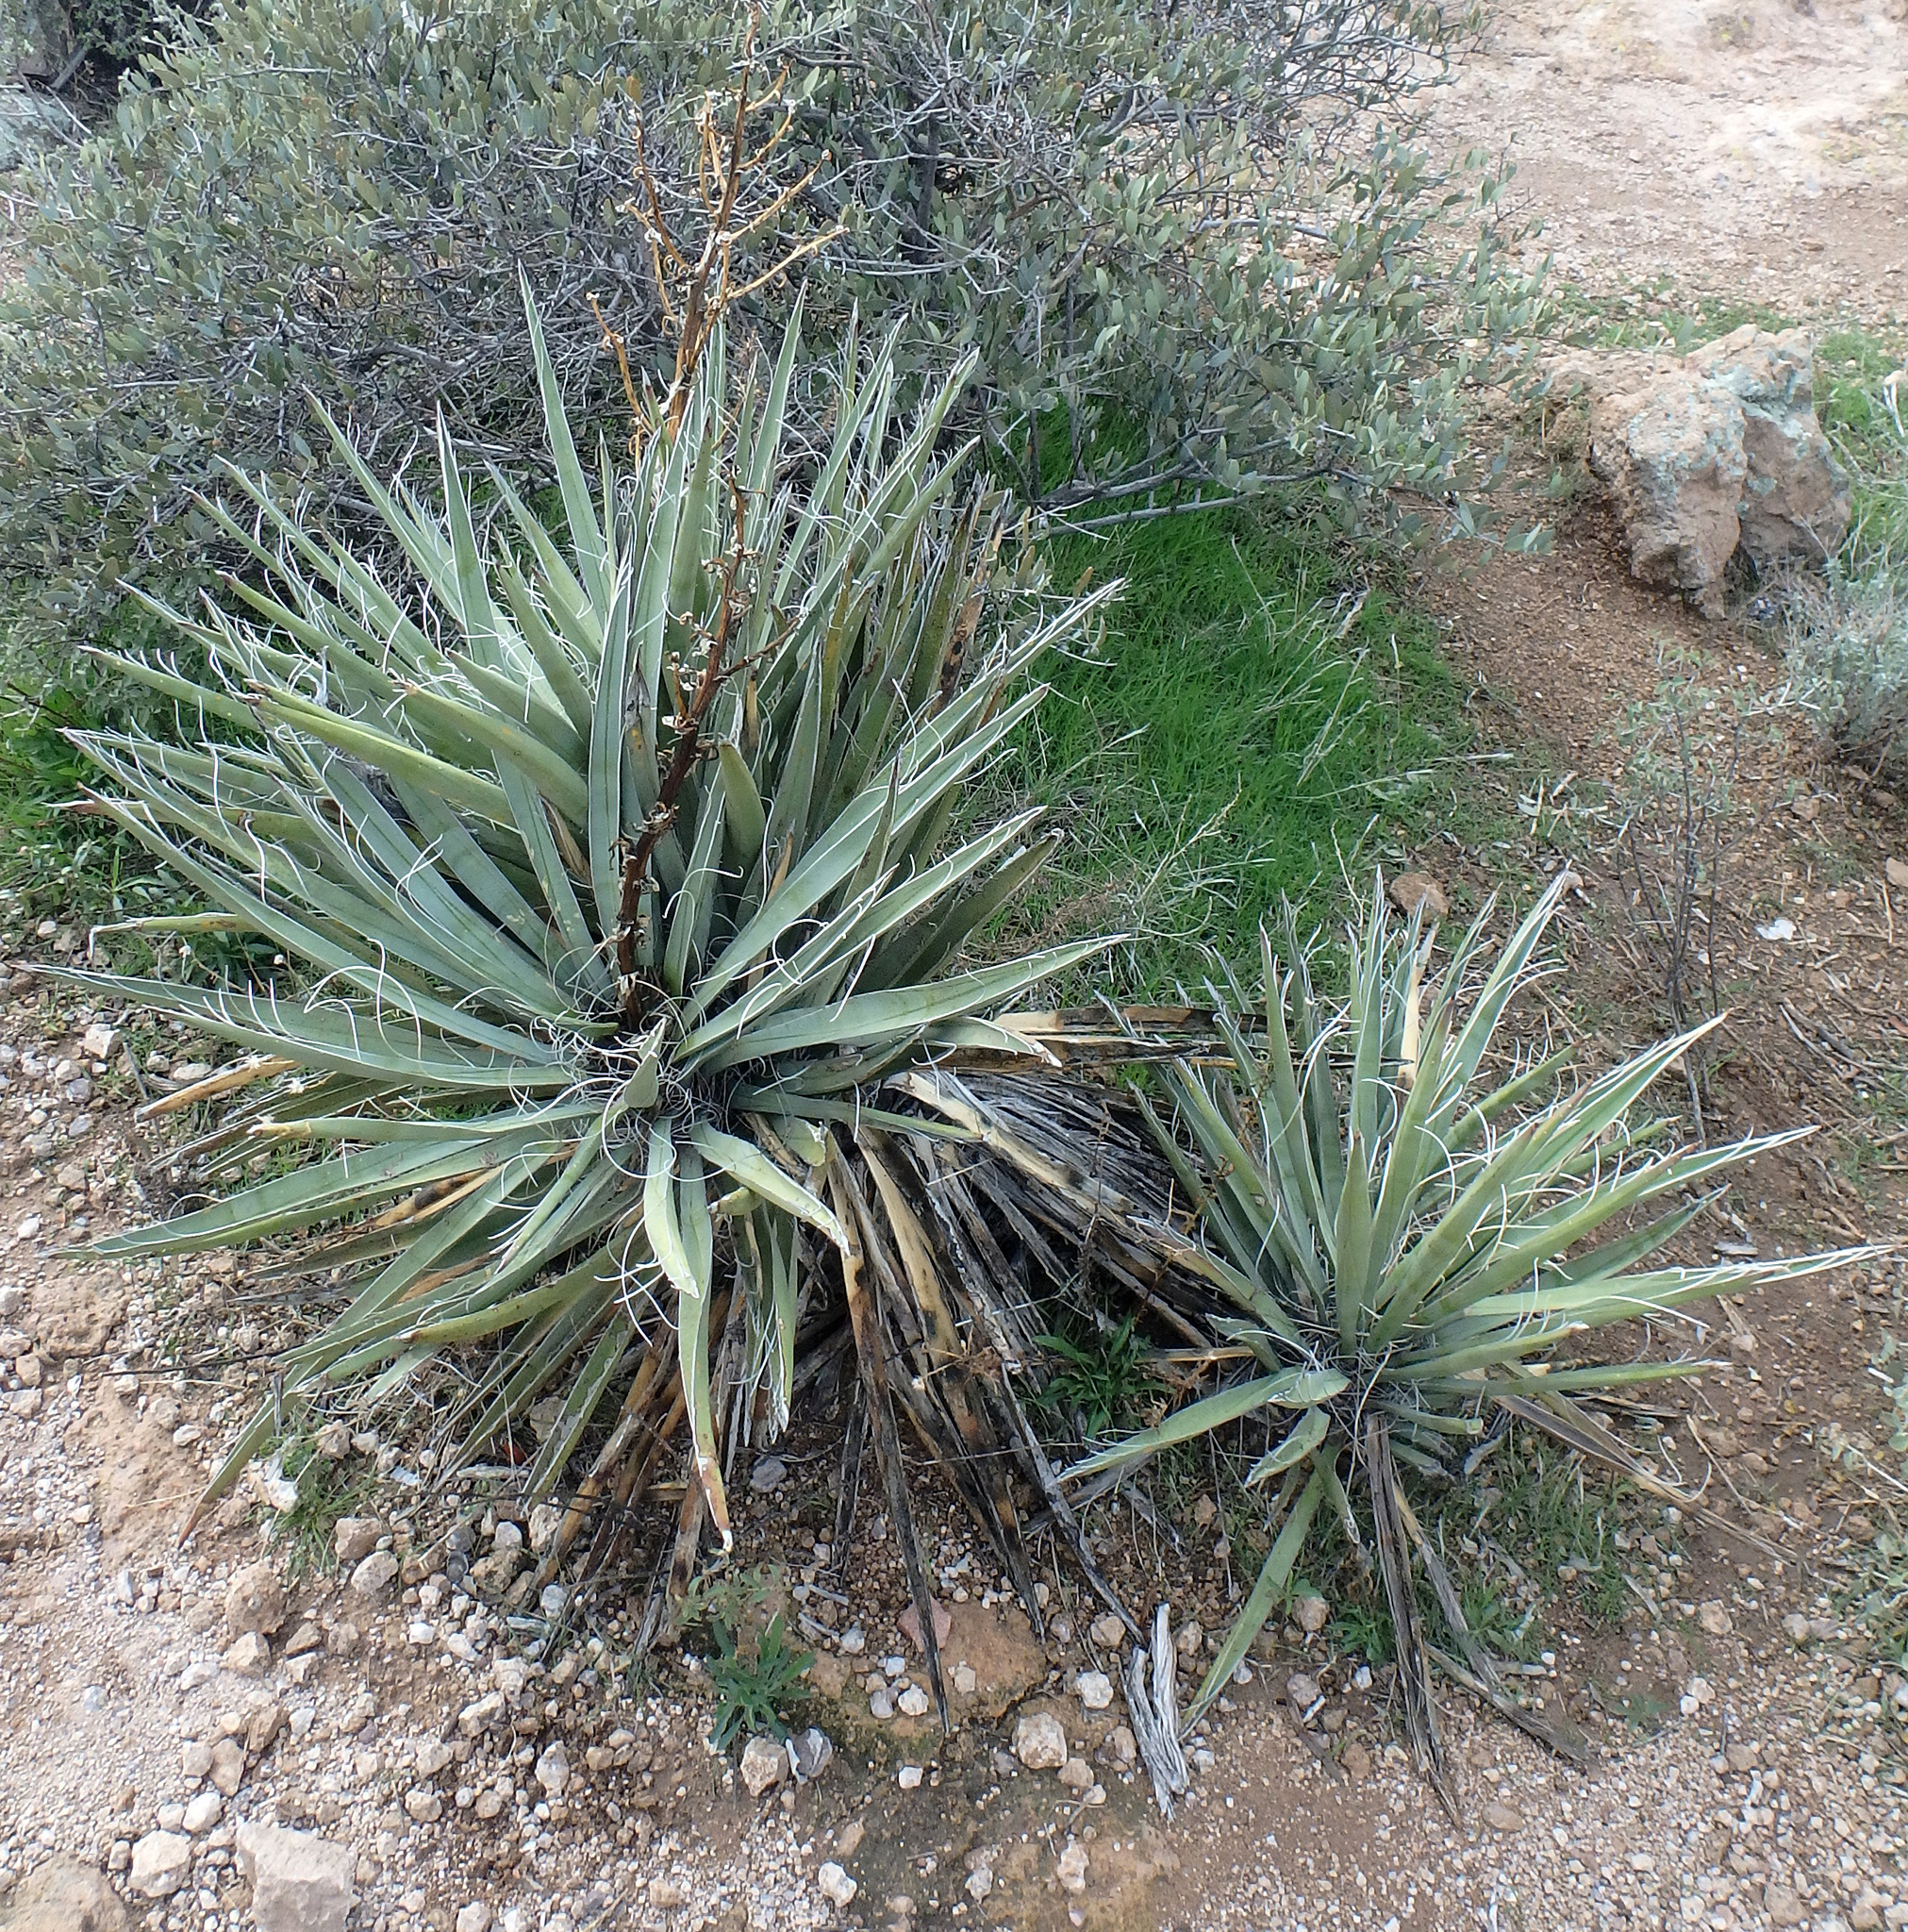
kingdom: Plantae
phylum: Tracheophyta
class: Liliopsida
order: Asparagales
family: Asparagaceae
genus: Yucca
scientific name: Yucca baccata
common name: Banana yucca
